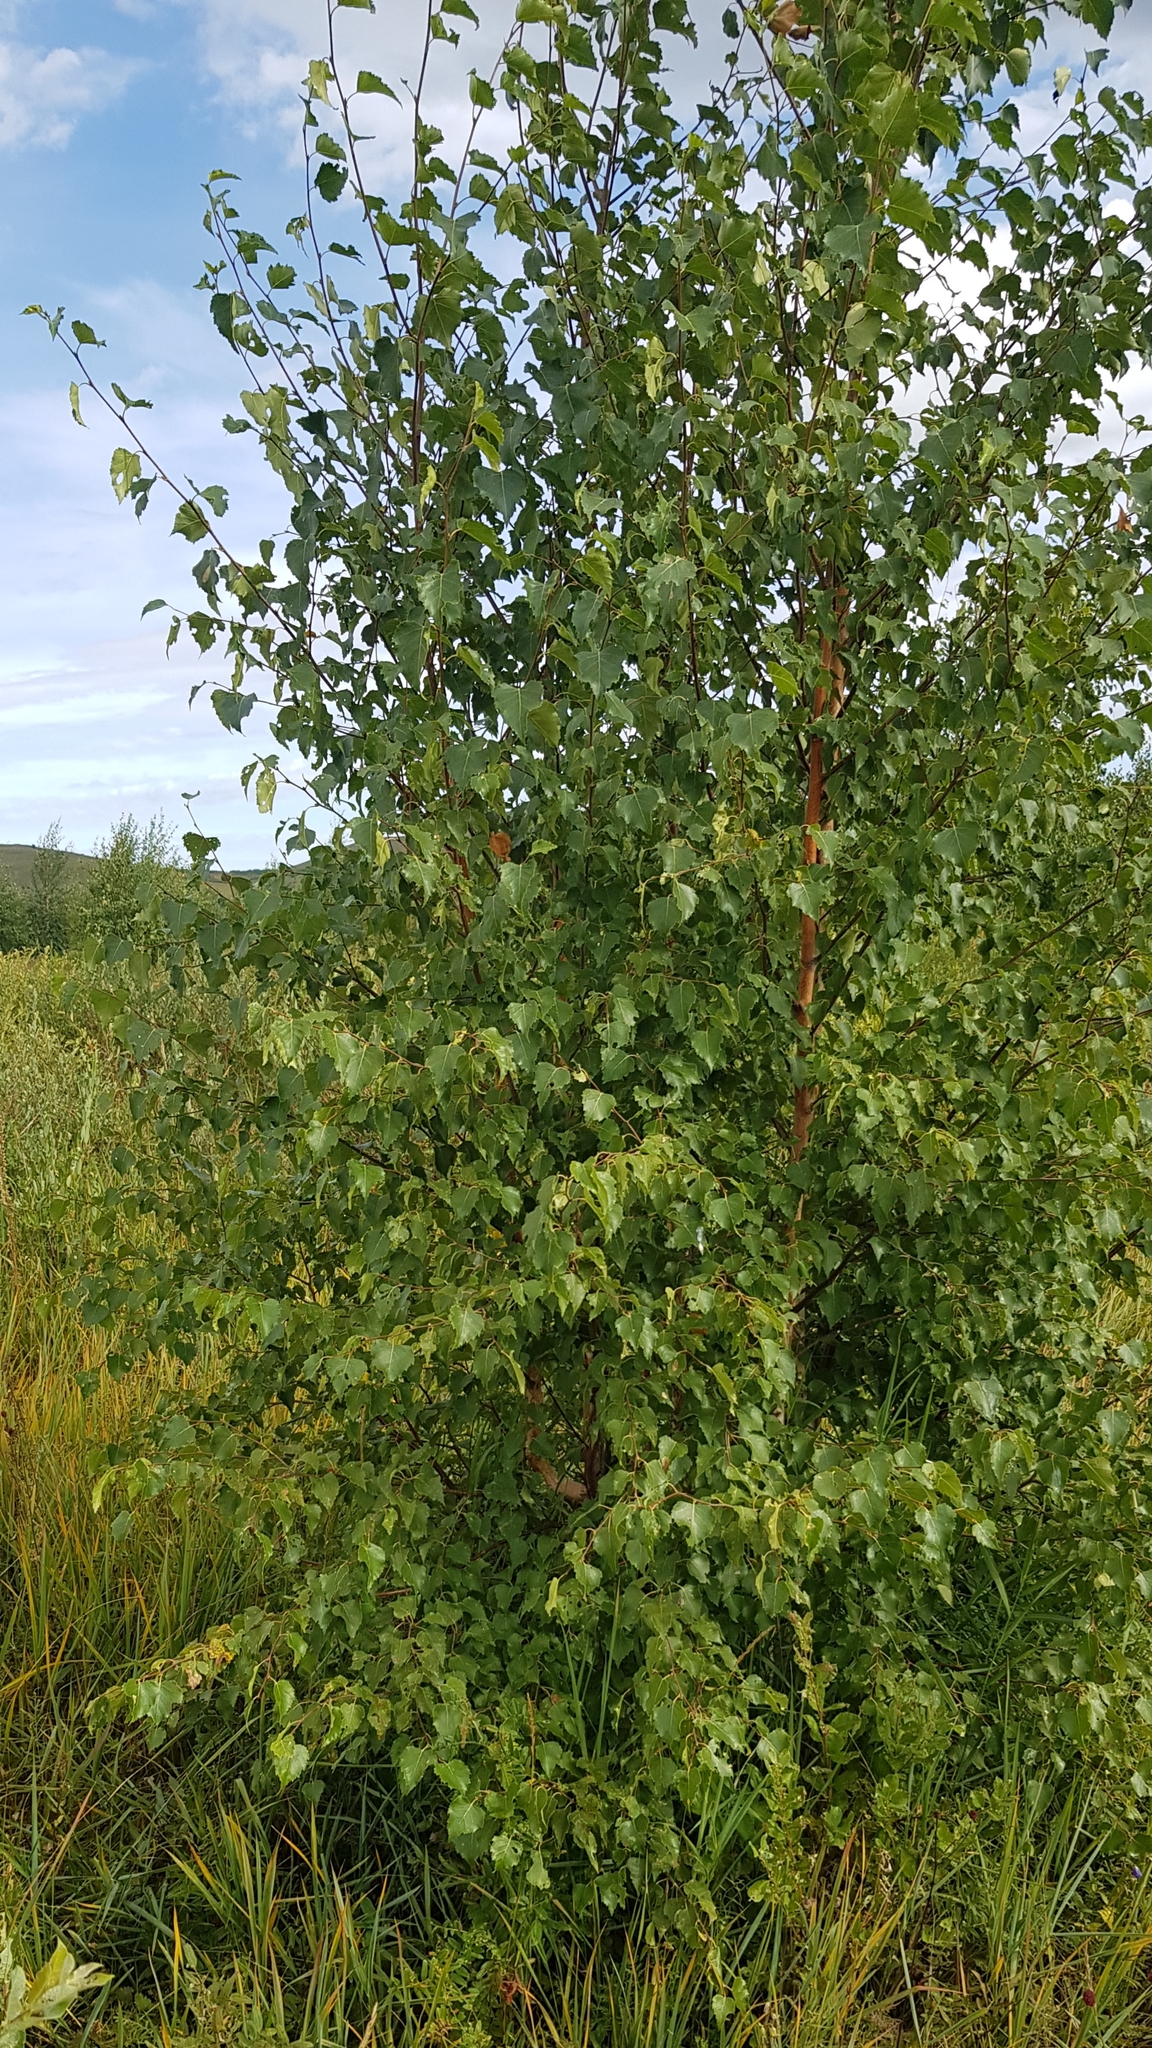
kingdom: Plantae
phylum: Tracheophyta
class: Magnoliopsida
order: Fagales
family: Betulaceae
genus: Alnus
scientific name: Alnus alnobetula
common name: Green alder
